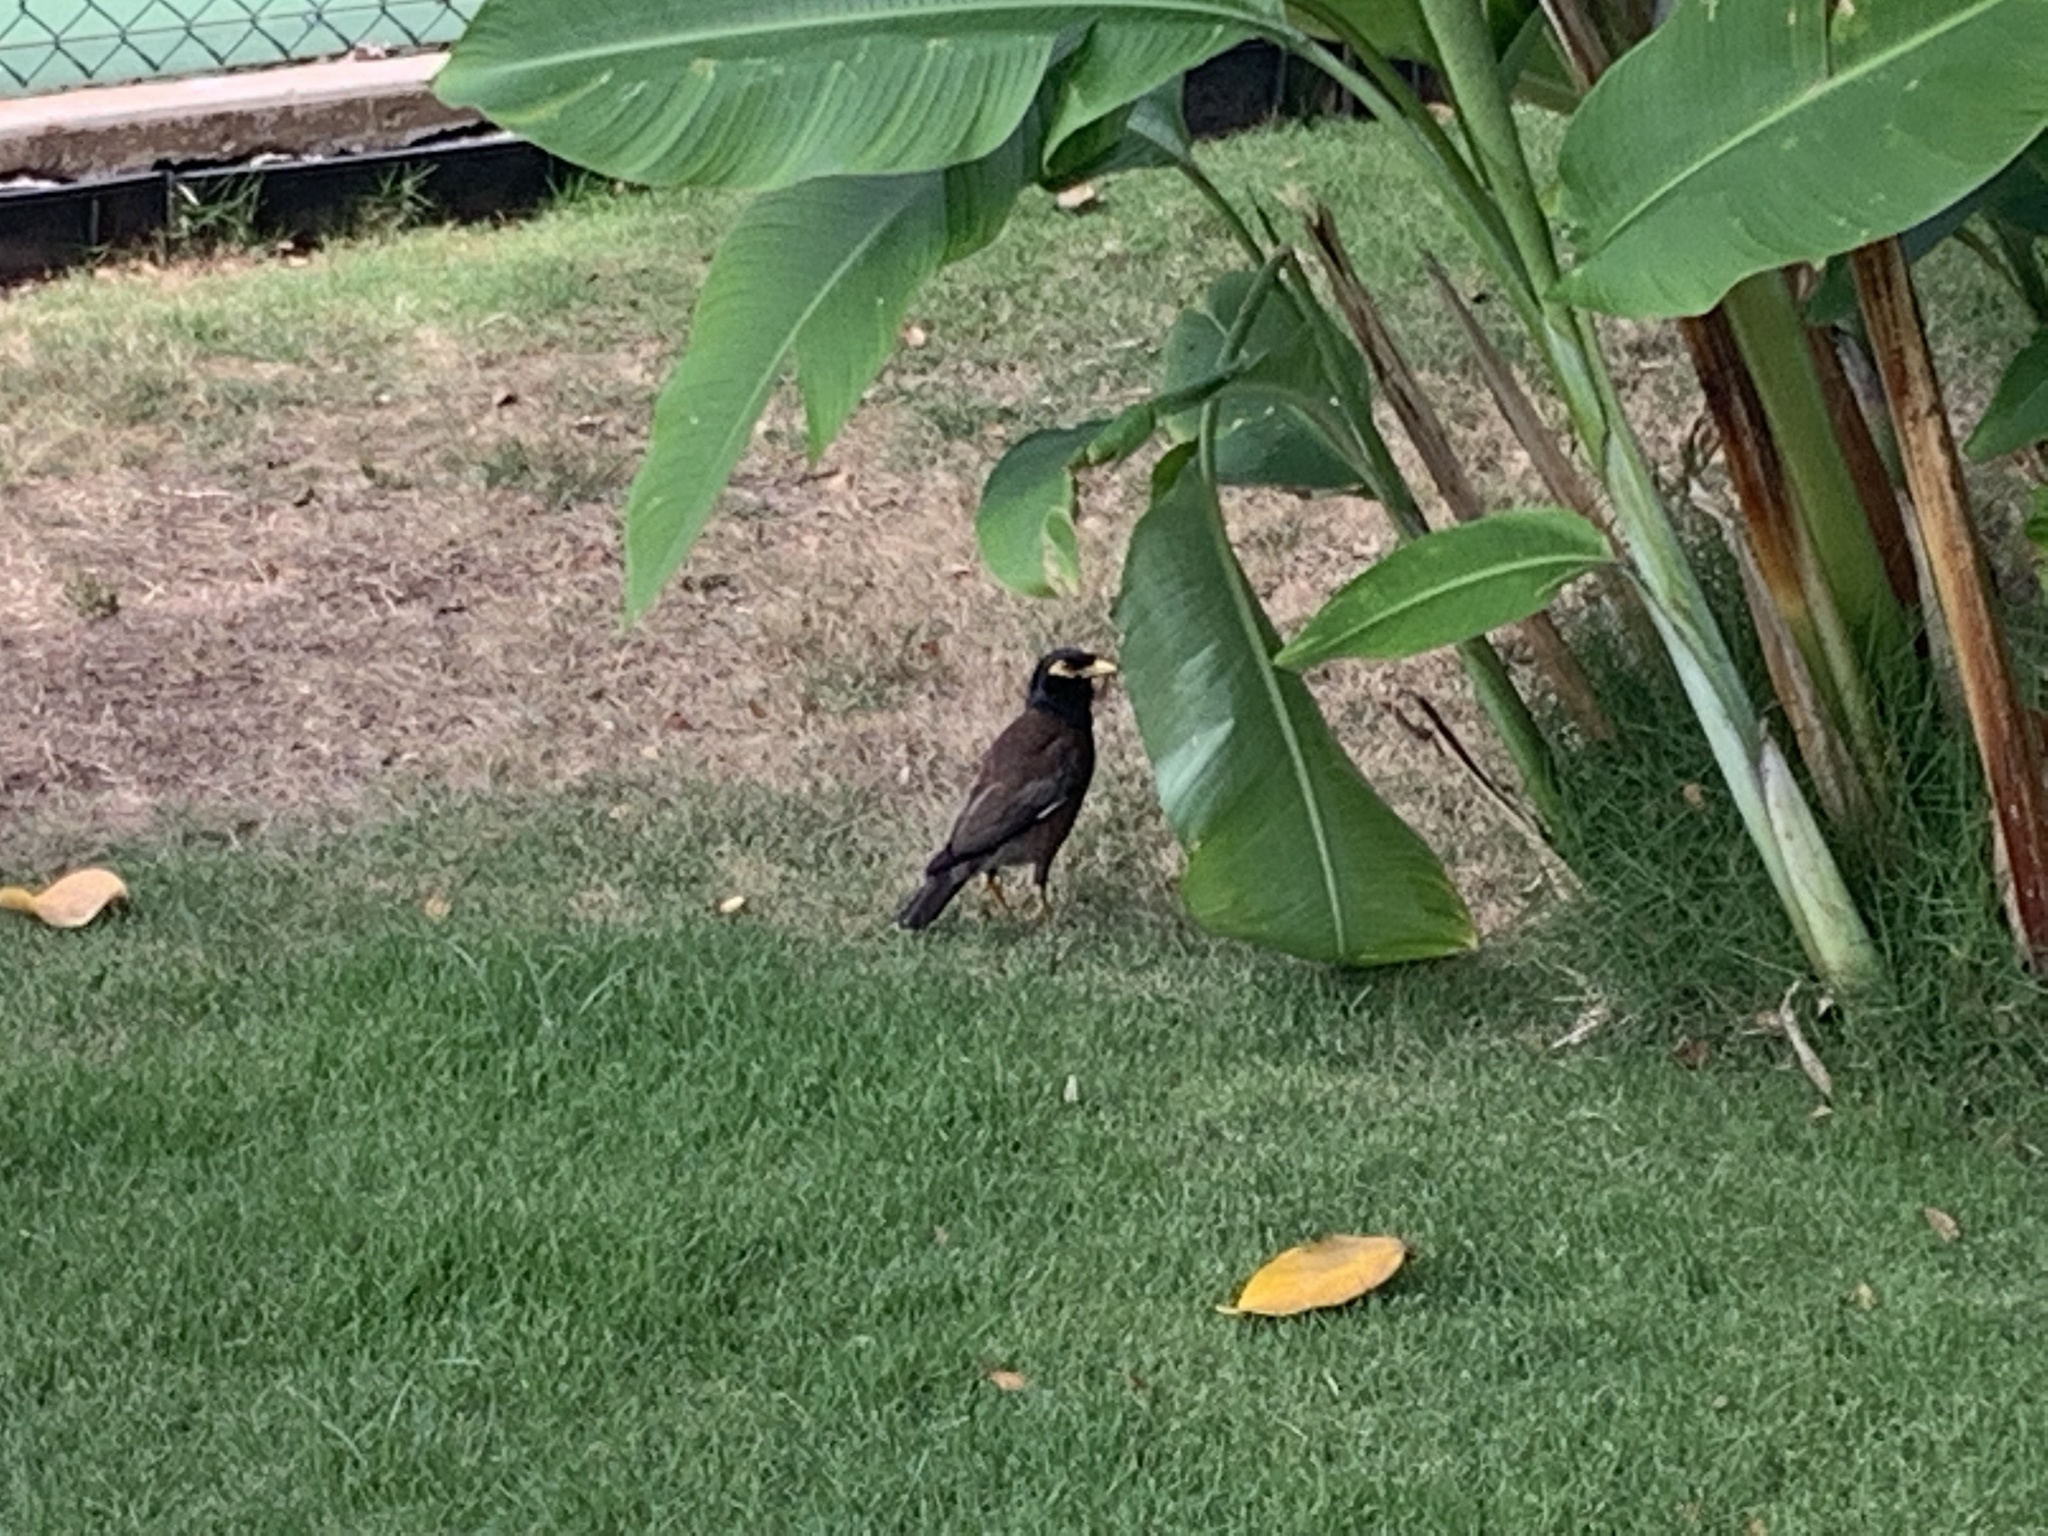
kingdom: Animalia
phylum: Chordata
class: Aves
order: Passeriformes
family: Sturnidae
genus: Acridotheres
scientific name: Acridotheres tristis
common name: Common myna
